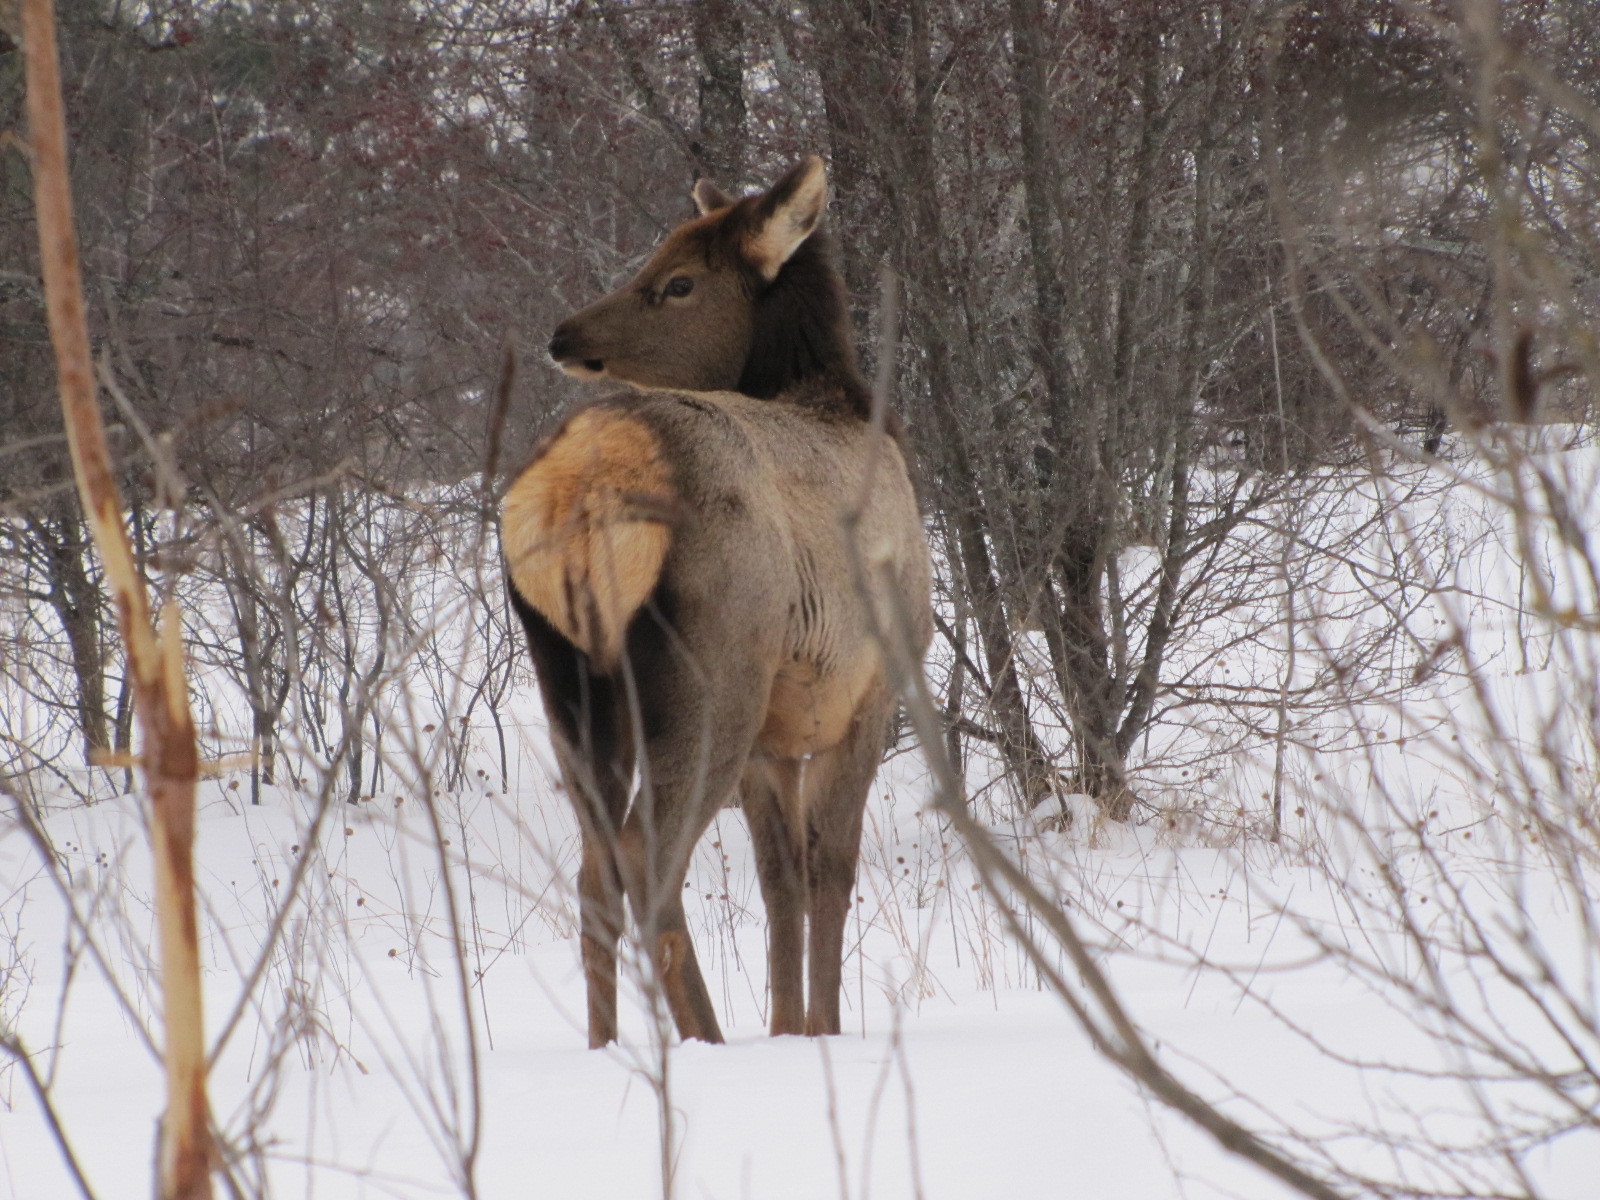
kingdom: Animalia
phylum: Chordata
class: Mammalia
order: Artiodactyla
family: Cervidae
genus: Cervus
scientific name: Cervus elaphus
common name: Red deer
